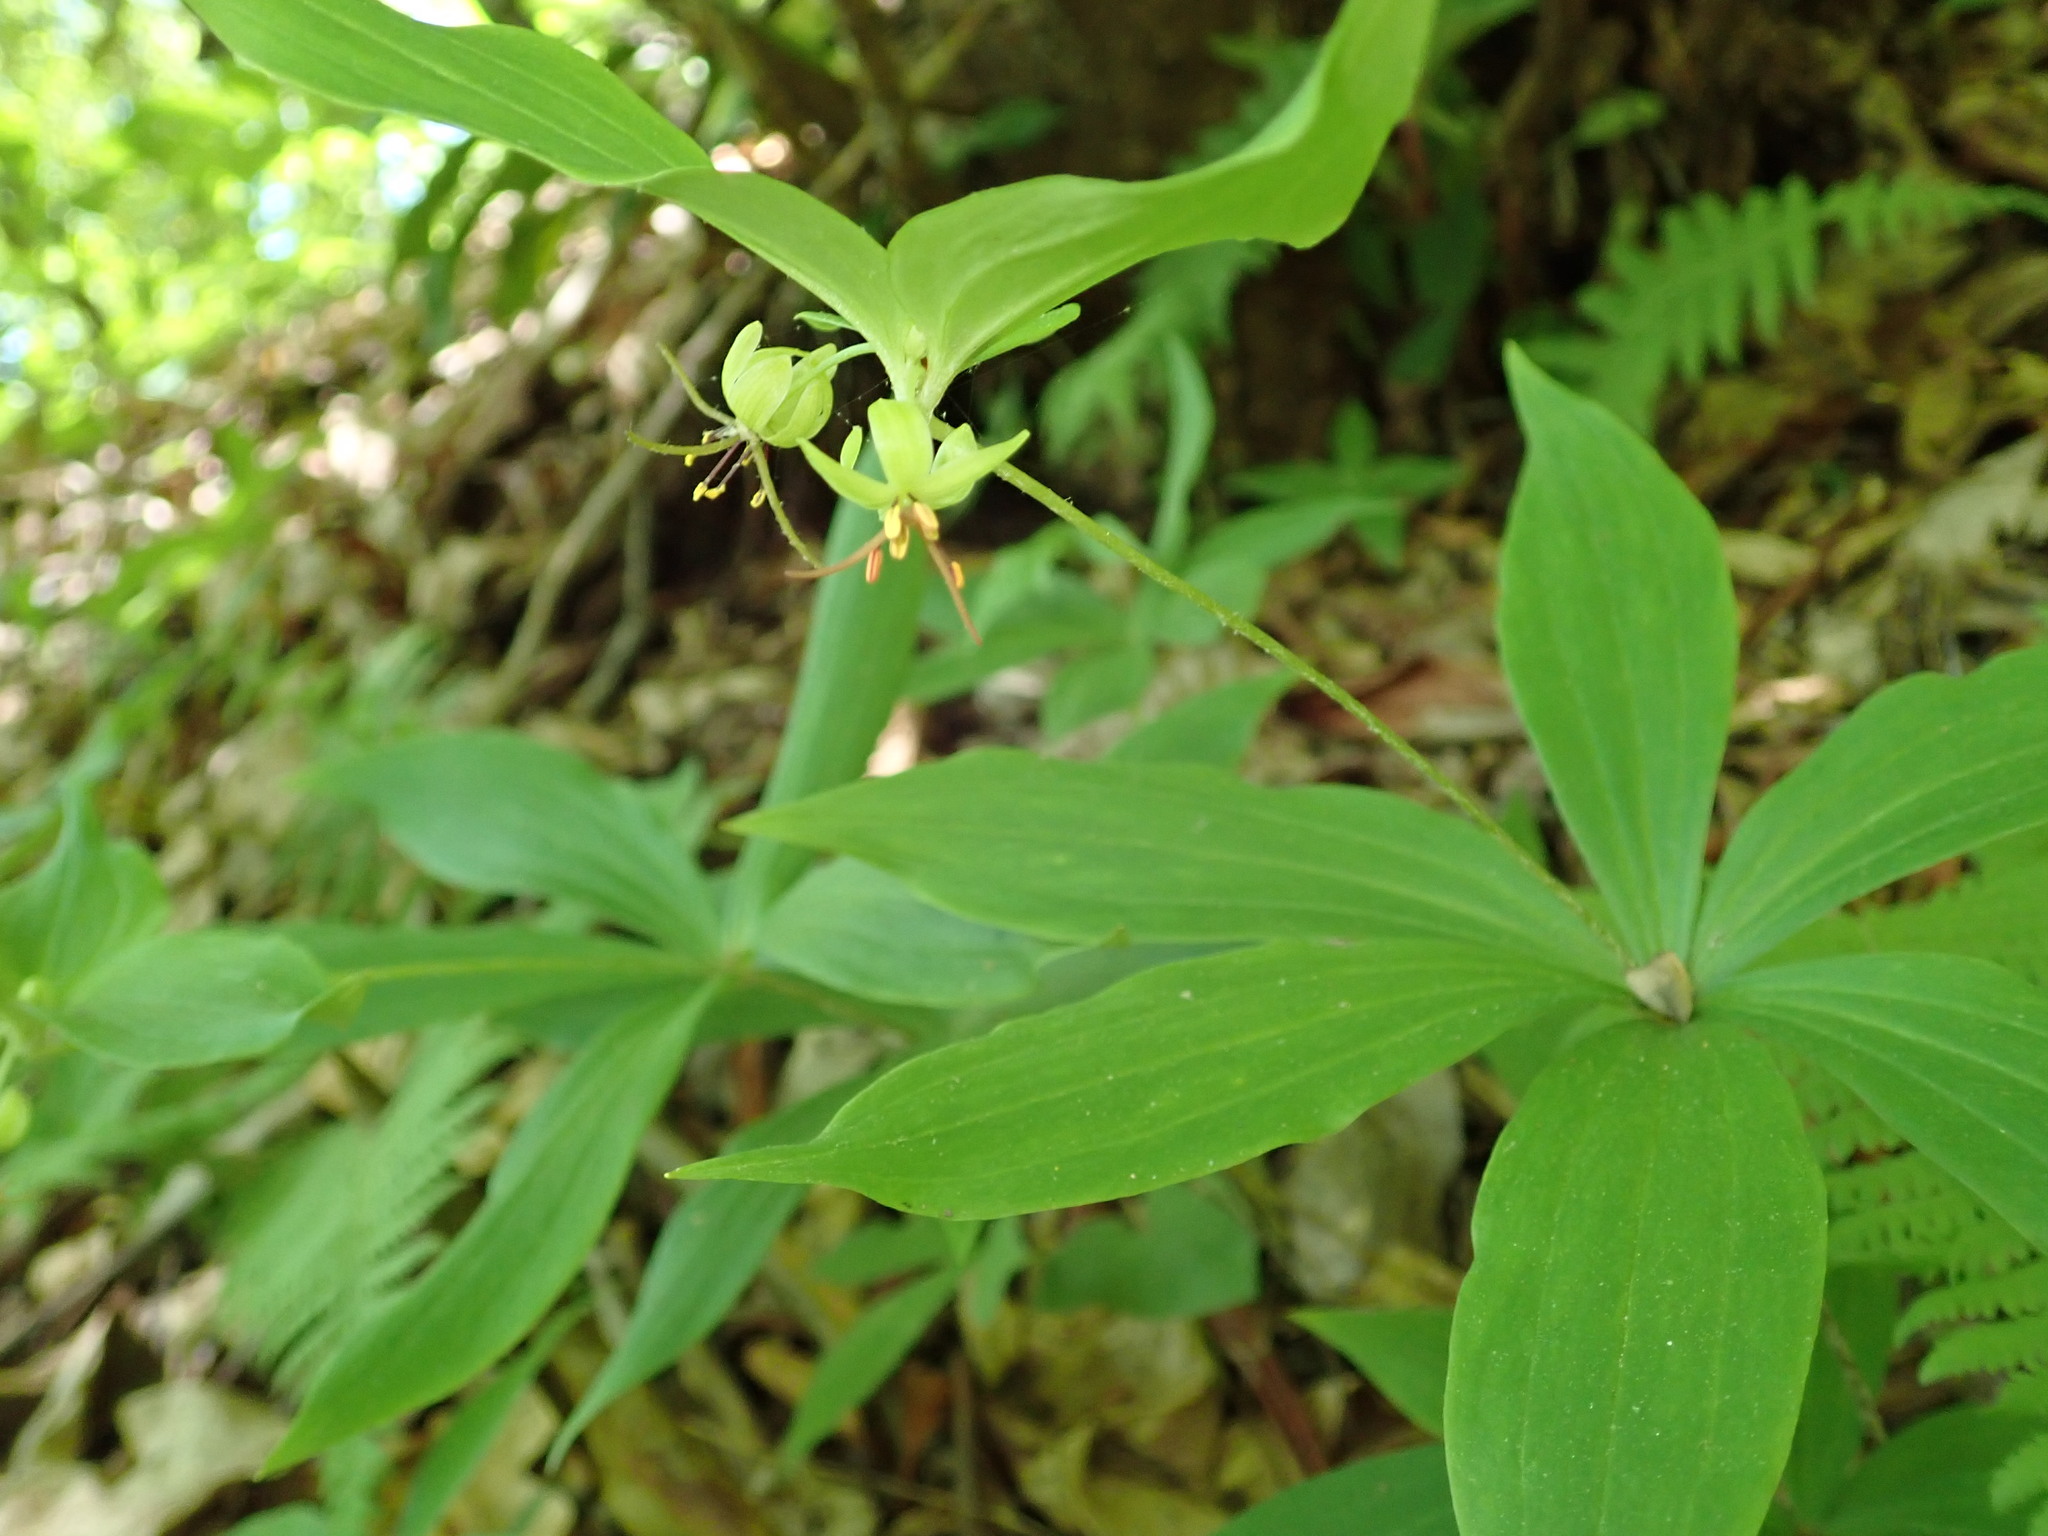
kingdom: Plantae
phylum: Tracheophyta
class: Liliopsida
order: Liliales
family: Liliaceae
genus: Medeola
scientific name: Medeola virginiana
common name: Indian cucumber-root
